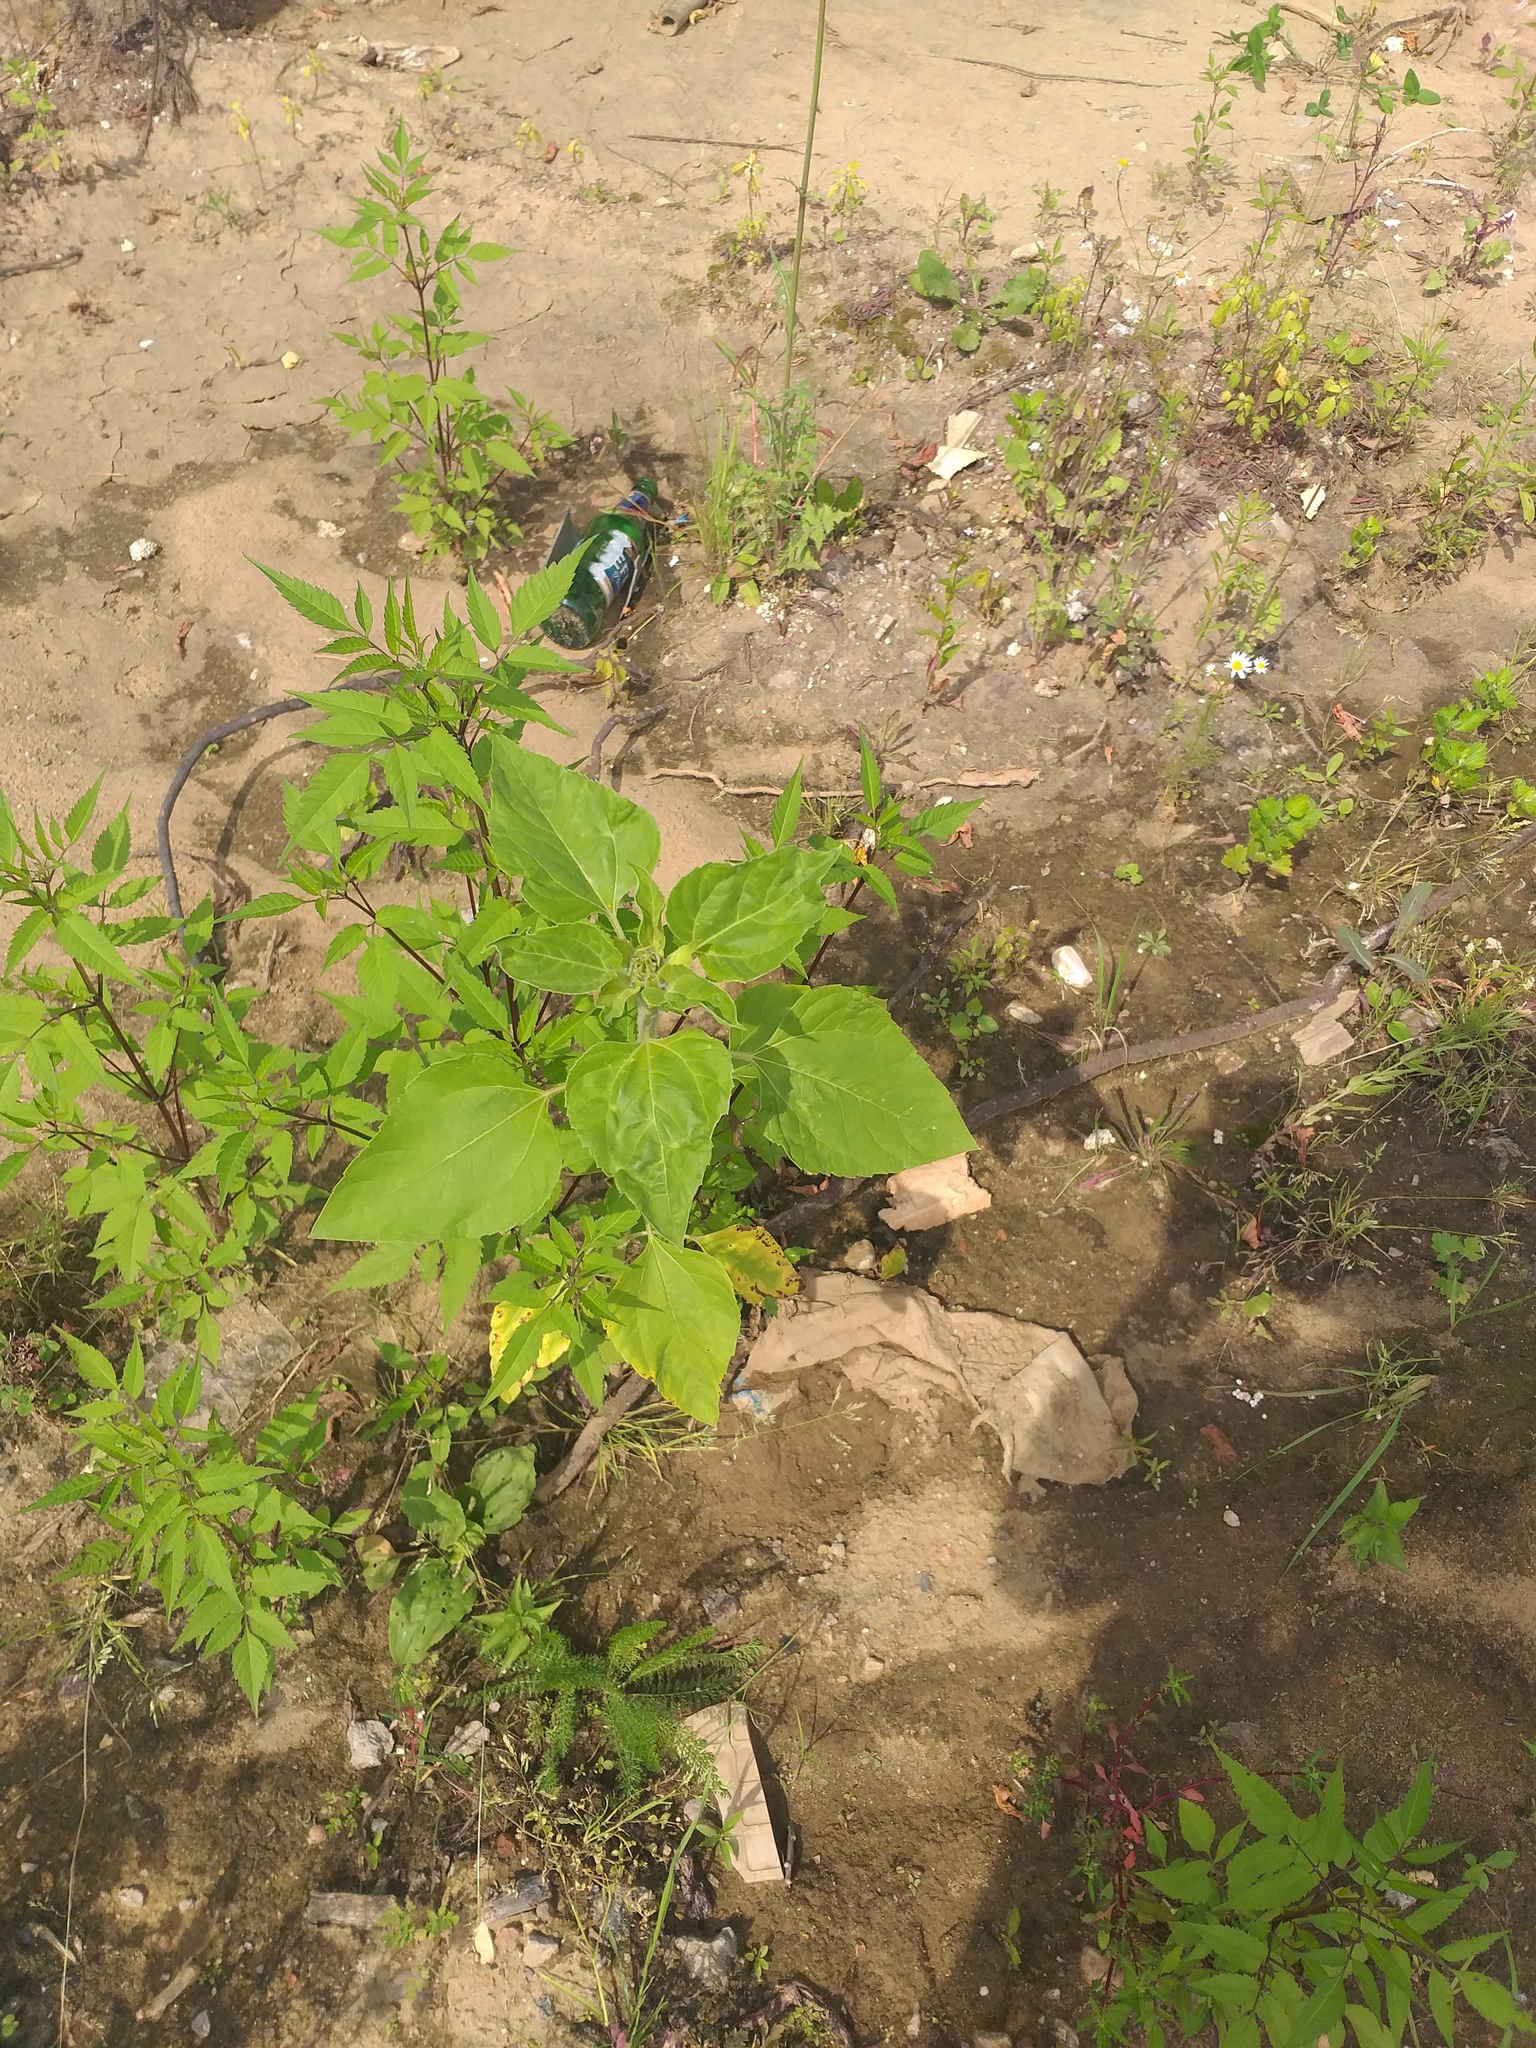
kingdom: Plantae
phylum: Tracheophyta
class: Magnoliopsida
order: Asterales
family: Asteraceae
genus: Helianthus
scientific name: Helianthus annuus
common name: Sunflower
